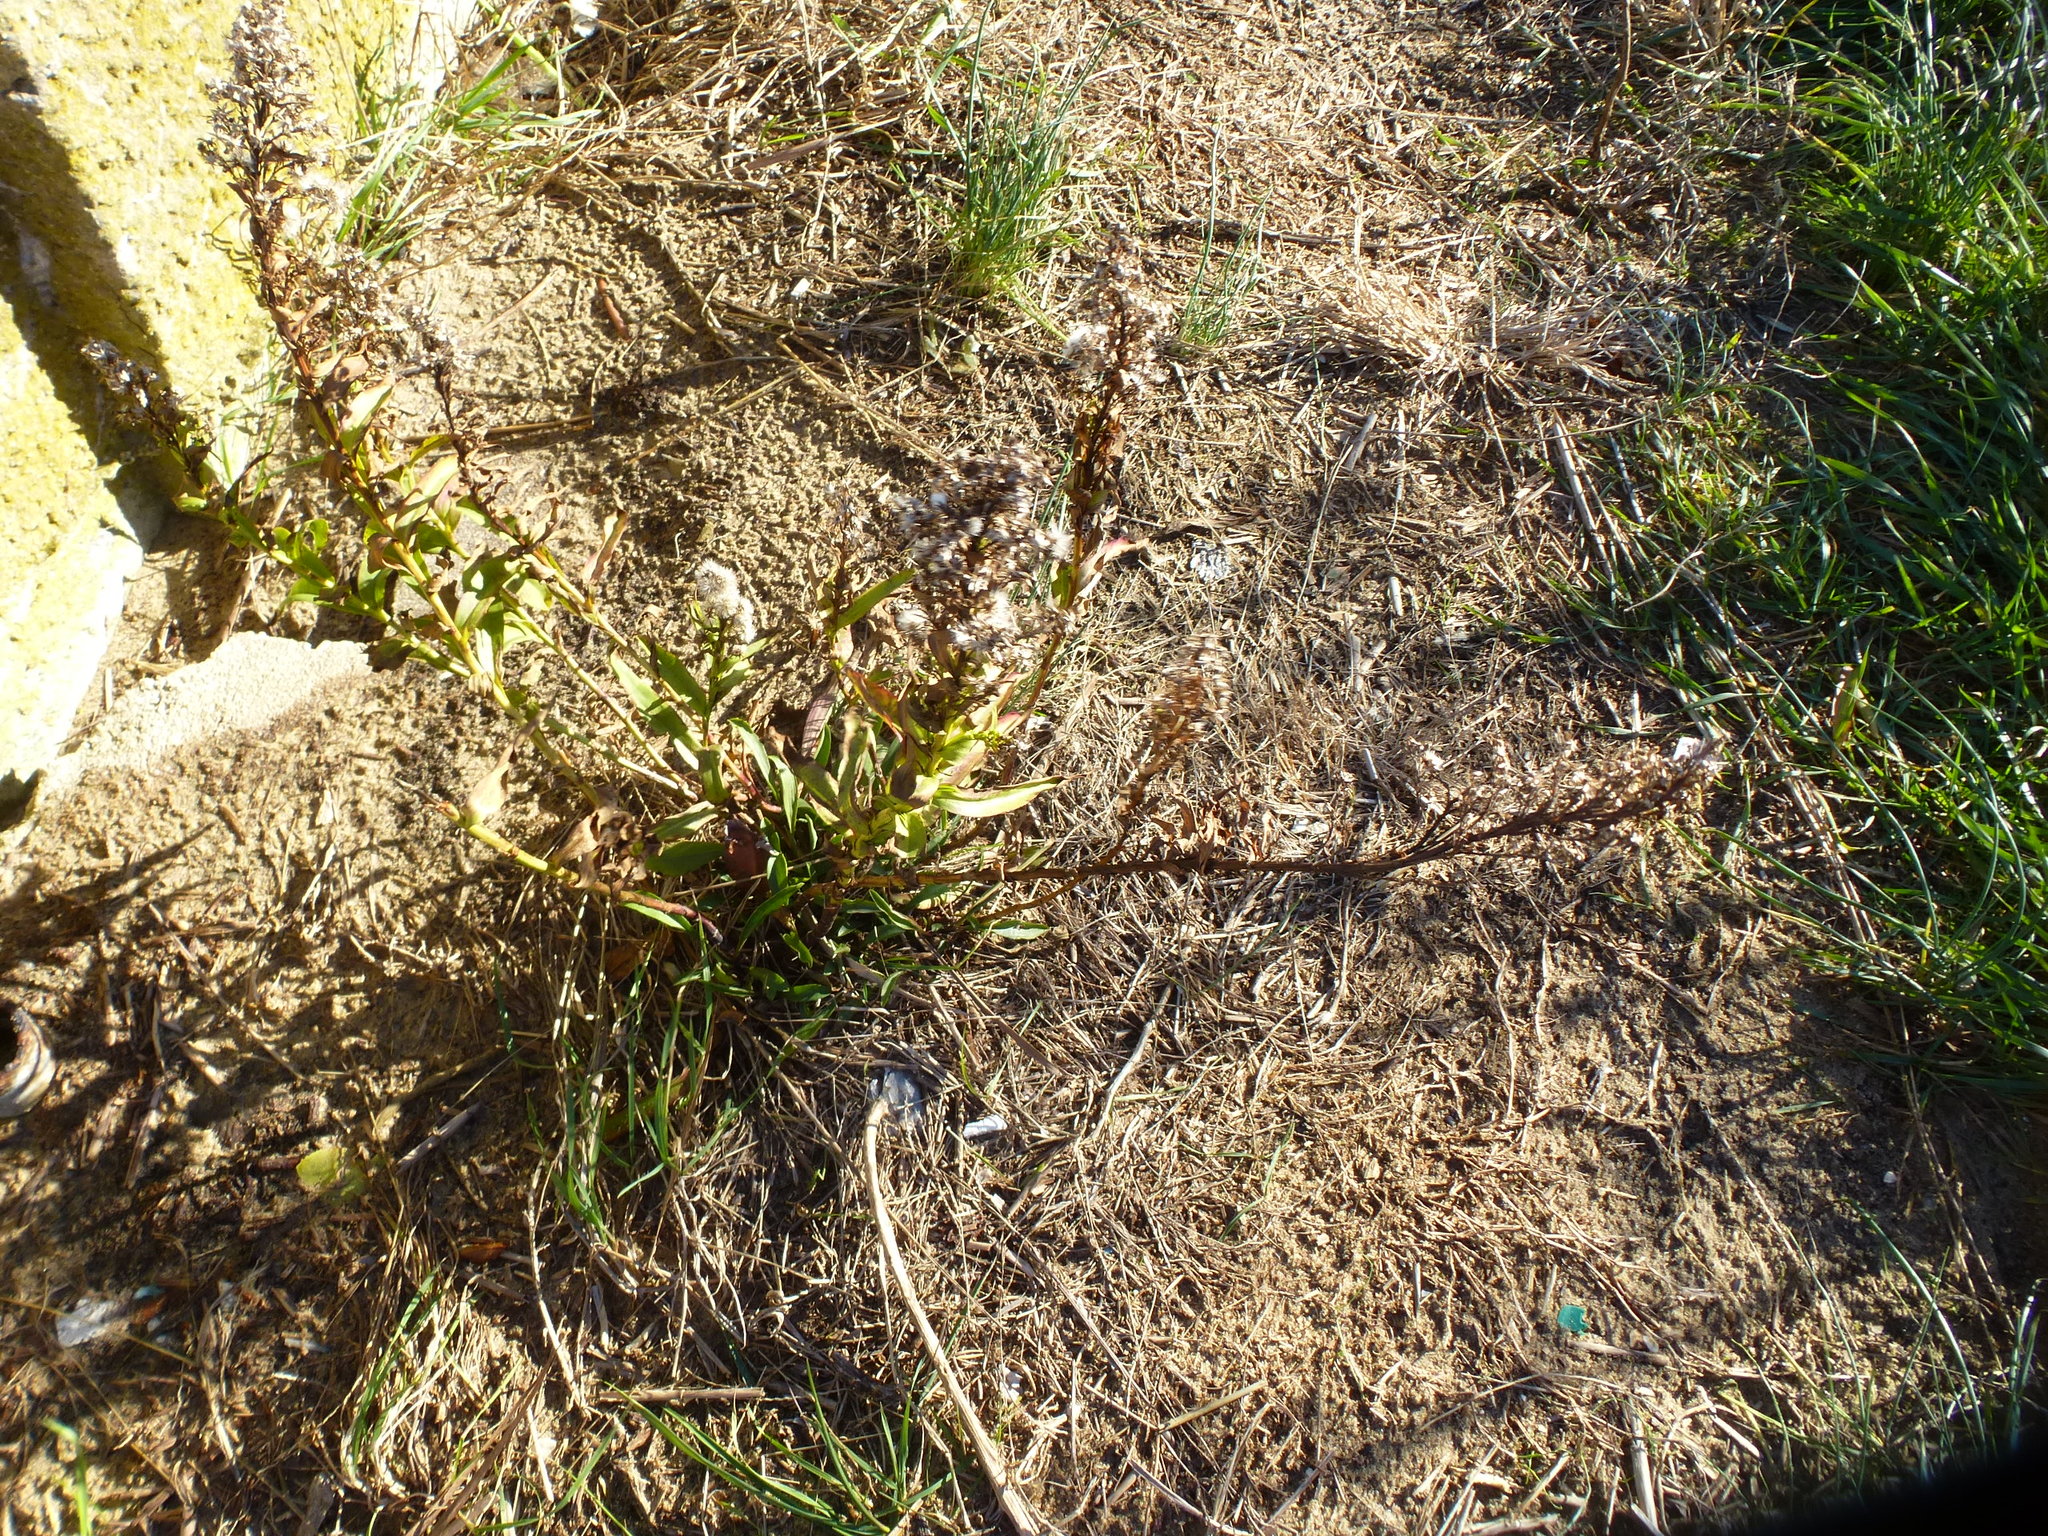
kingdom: Plantae
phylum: Tracheophyta
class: Magnoliopsida
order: Asterales
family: Asteraceae
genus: Solidago
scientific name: Solidago sempervirens
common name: Salt-marsh goldenrod
